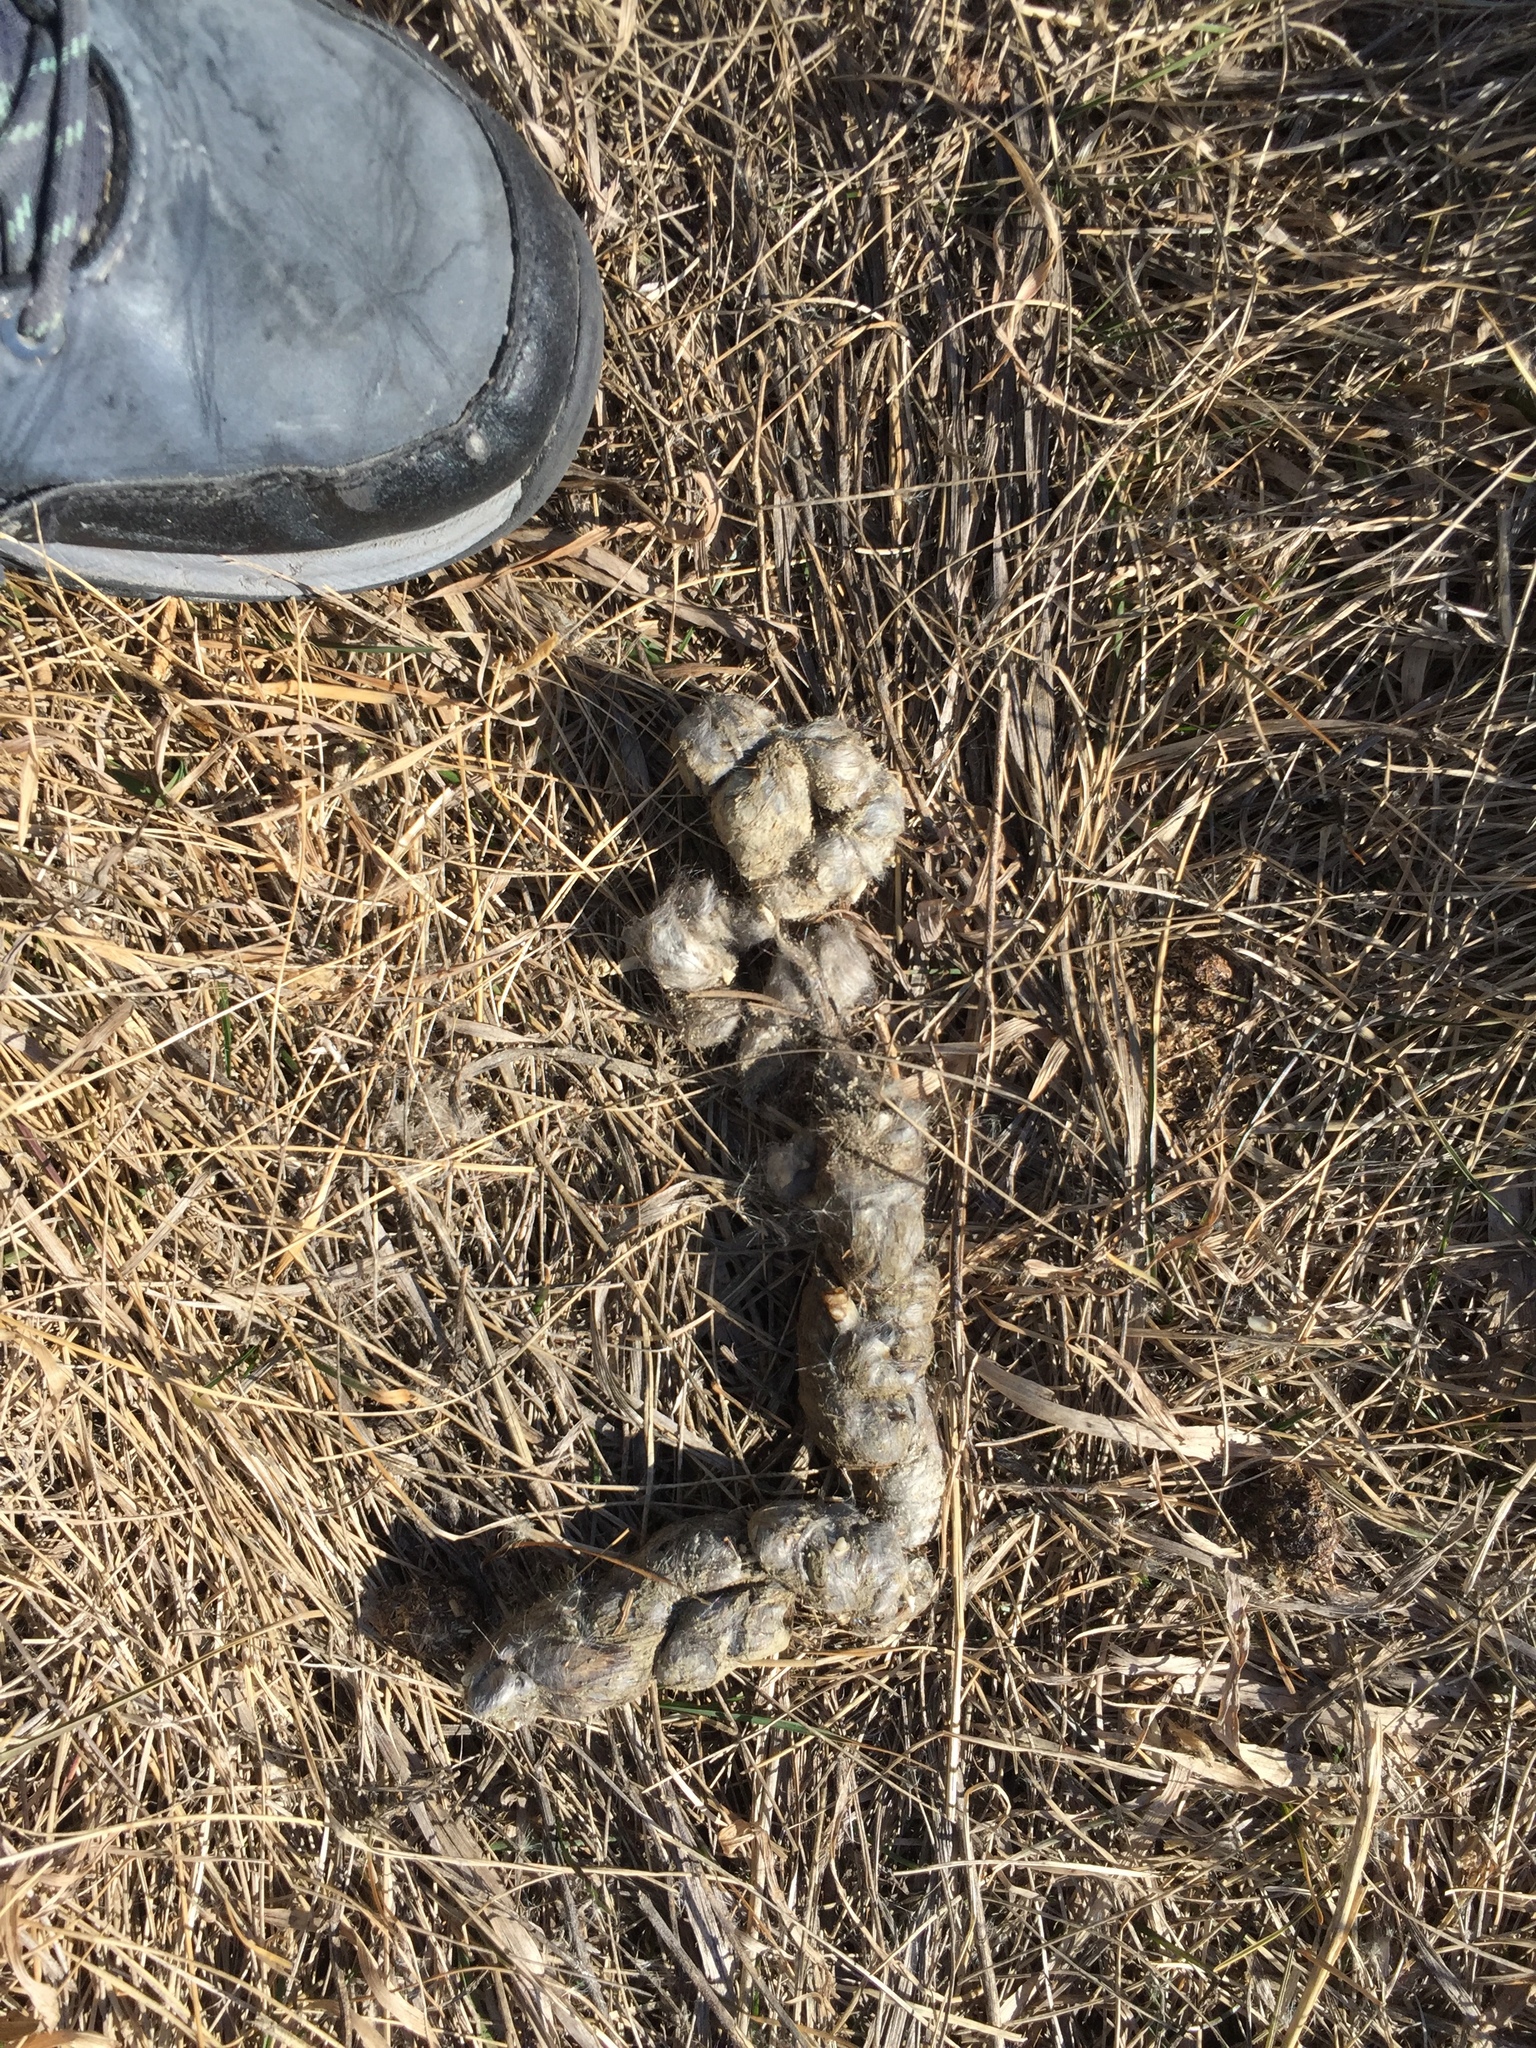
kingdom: Animalia
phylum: Chordata
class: Mammalia
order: Carnivora
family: Canidae
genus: Canis
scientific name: Canis latrans
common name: Coyote
